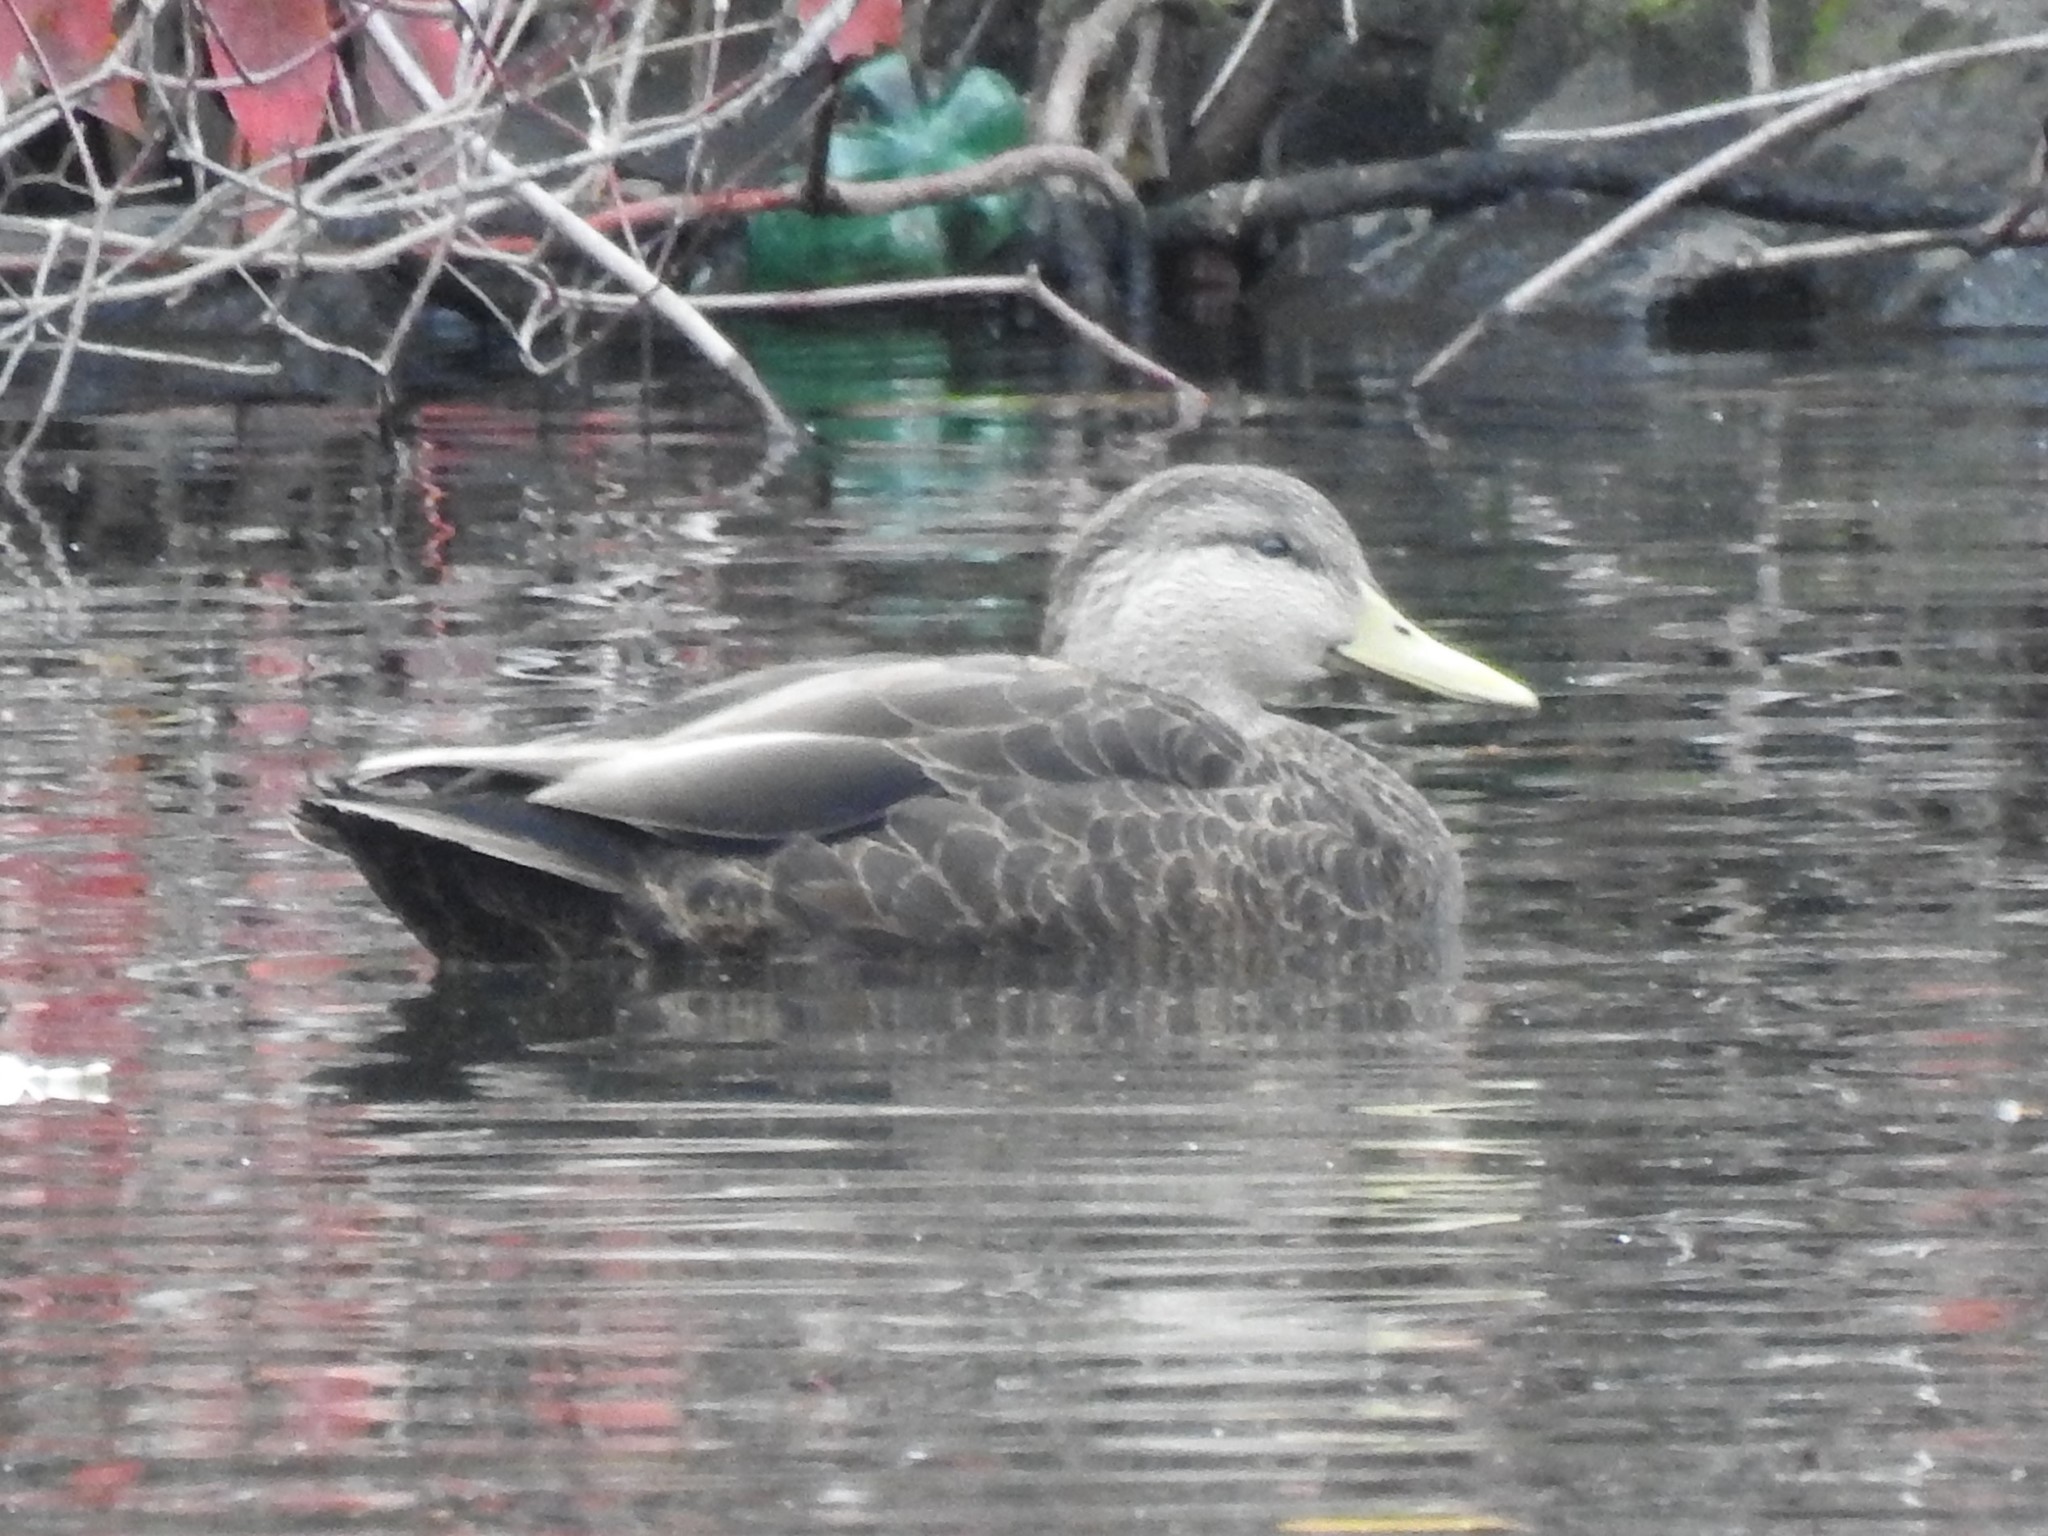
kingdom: Animalia
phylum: Chordata
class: Aves
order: Anseriformes
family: Anatidae
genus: Anas
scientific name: Anas rubripes
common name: American black duck
